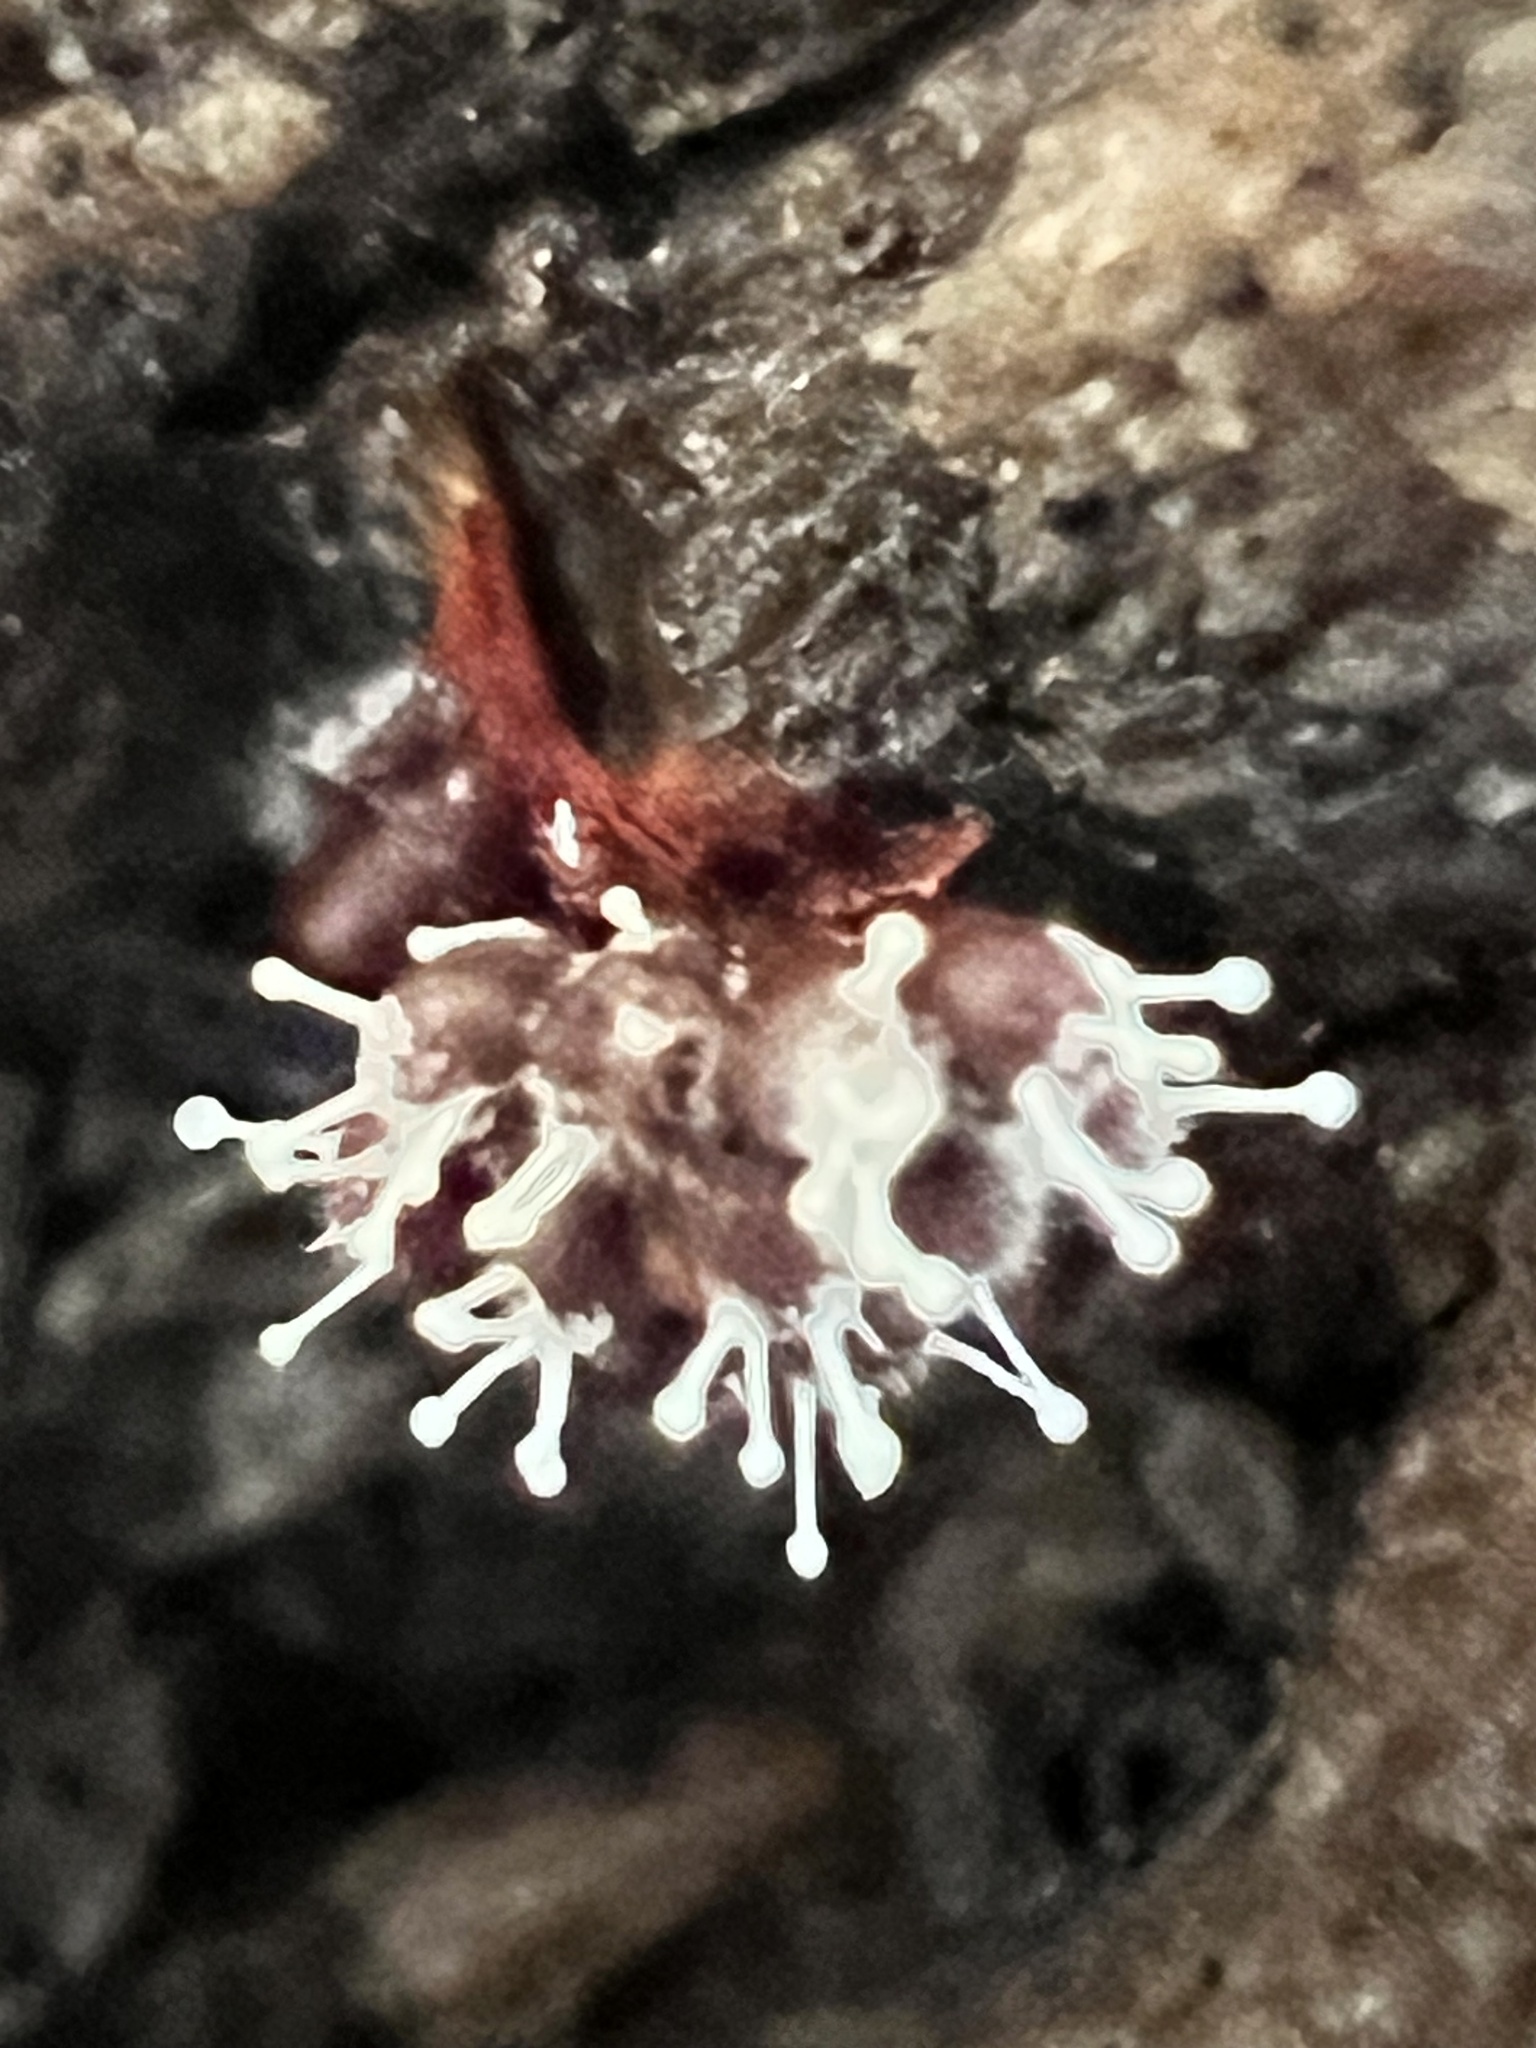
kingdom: Fungi
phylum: Ascomycota
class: Sordariomycetes
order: Hypocreales
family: Ophiocordycipitaceae
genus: Polycephalomyces
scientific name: Polycephalomyces tomentosus
